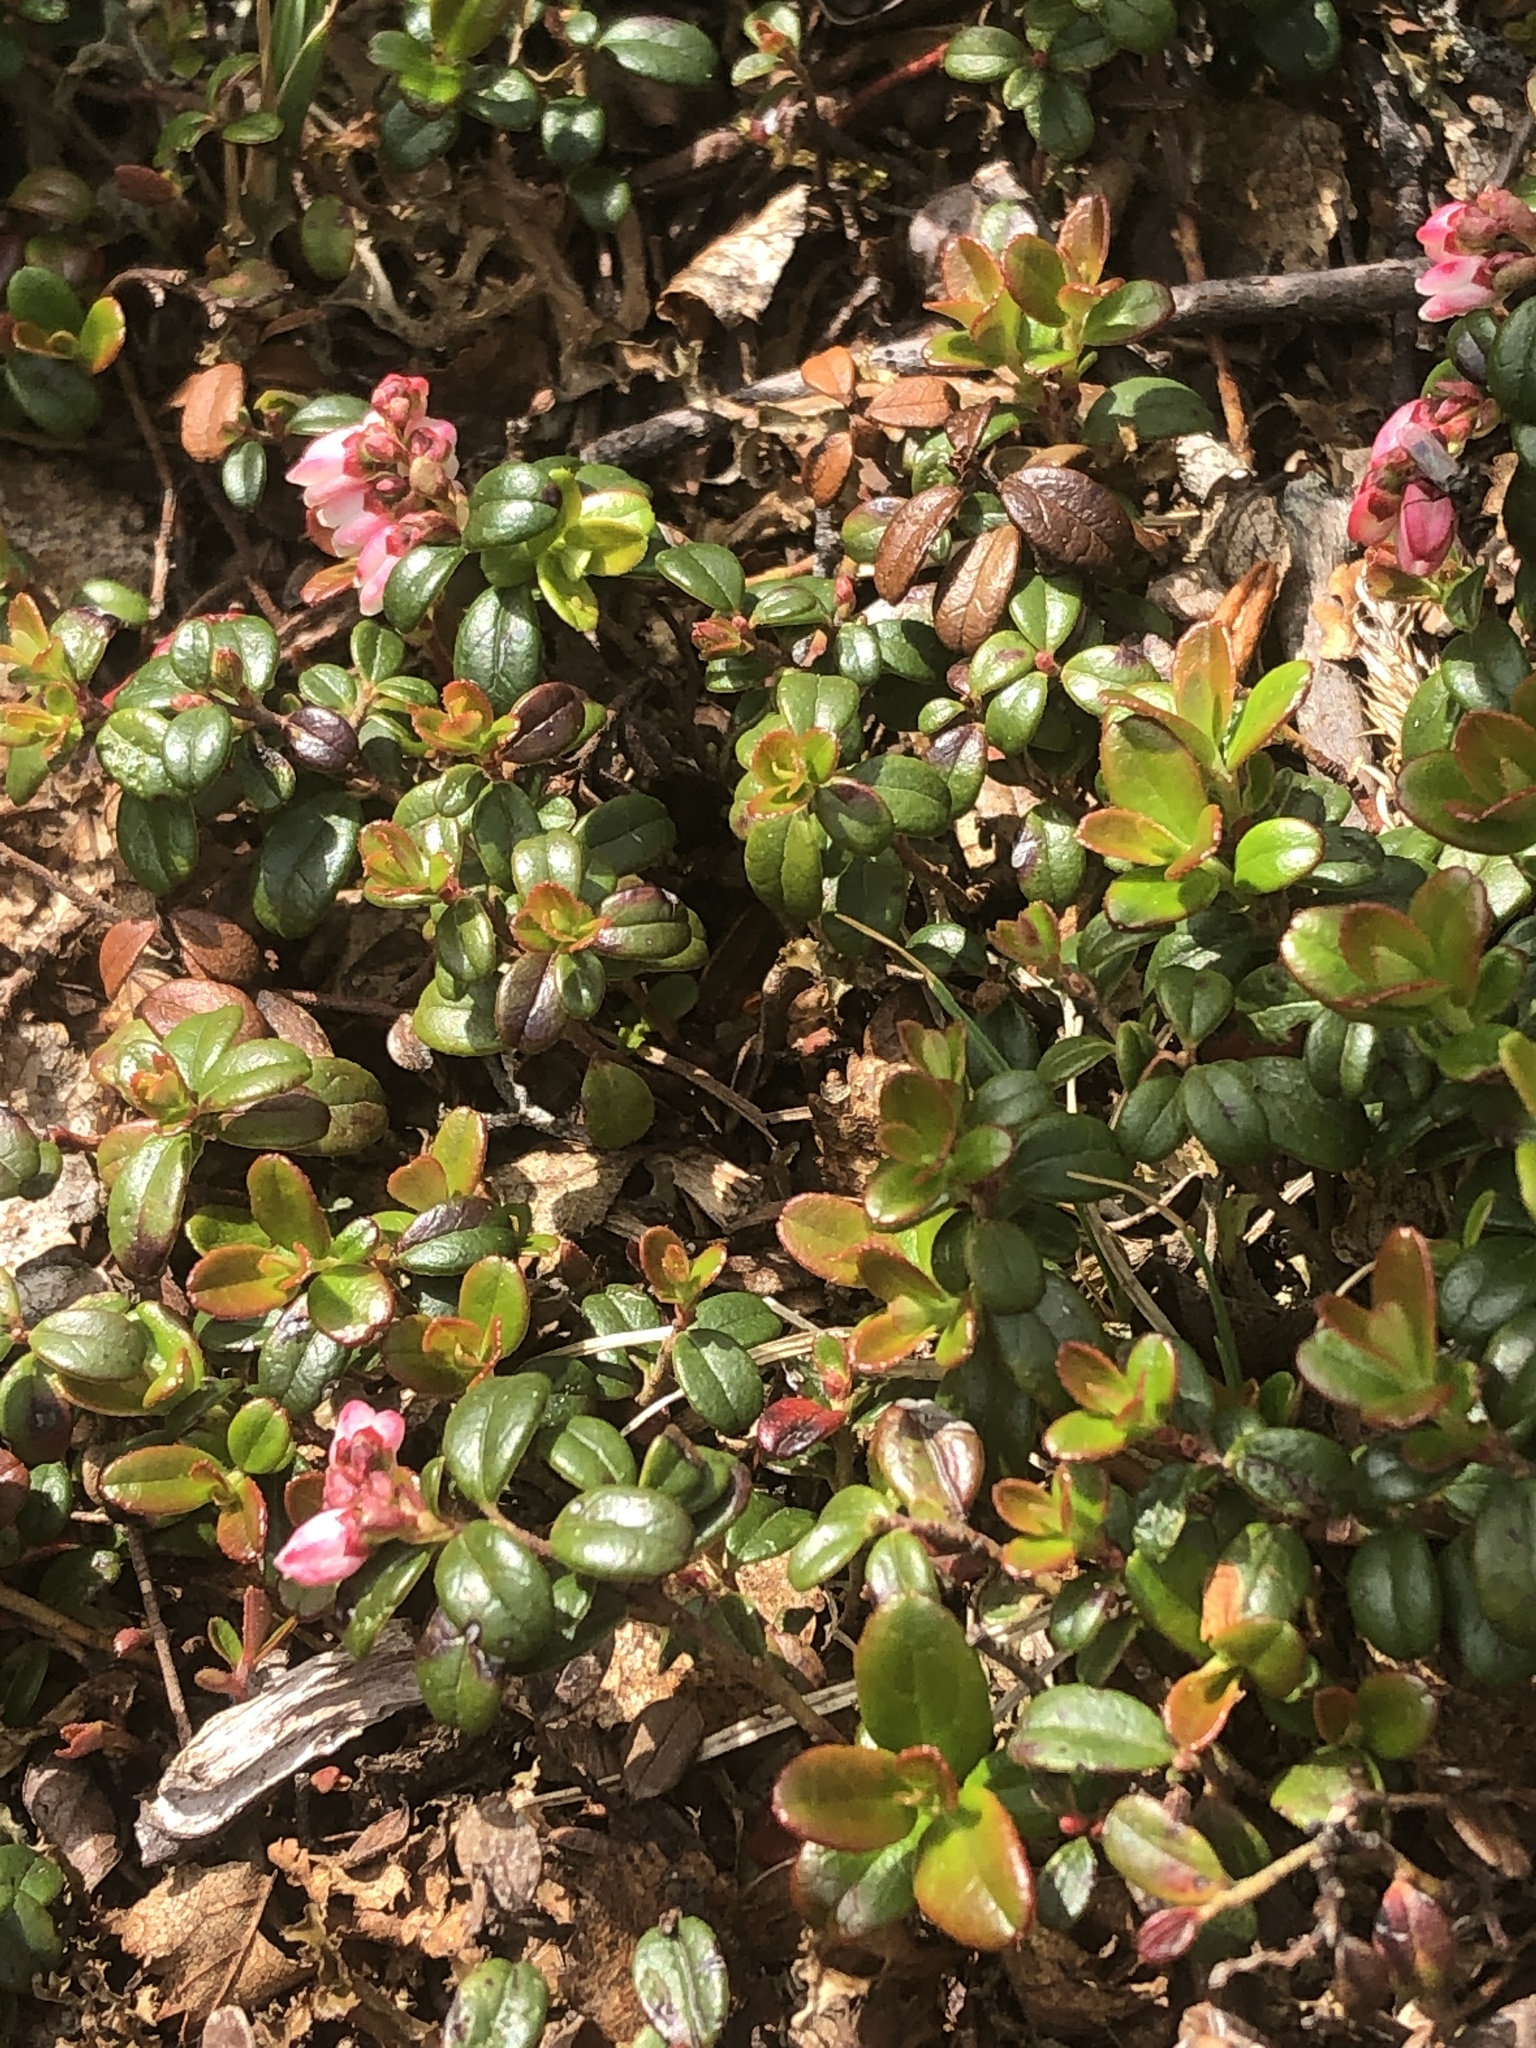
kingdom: Plantae
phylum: Tracheophyta
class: Magnoliopsida
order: Ericales
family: Ericaceae
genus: Vaccinium
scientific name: Vaccinium vitis-idaea
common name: Cowberry
